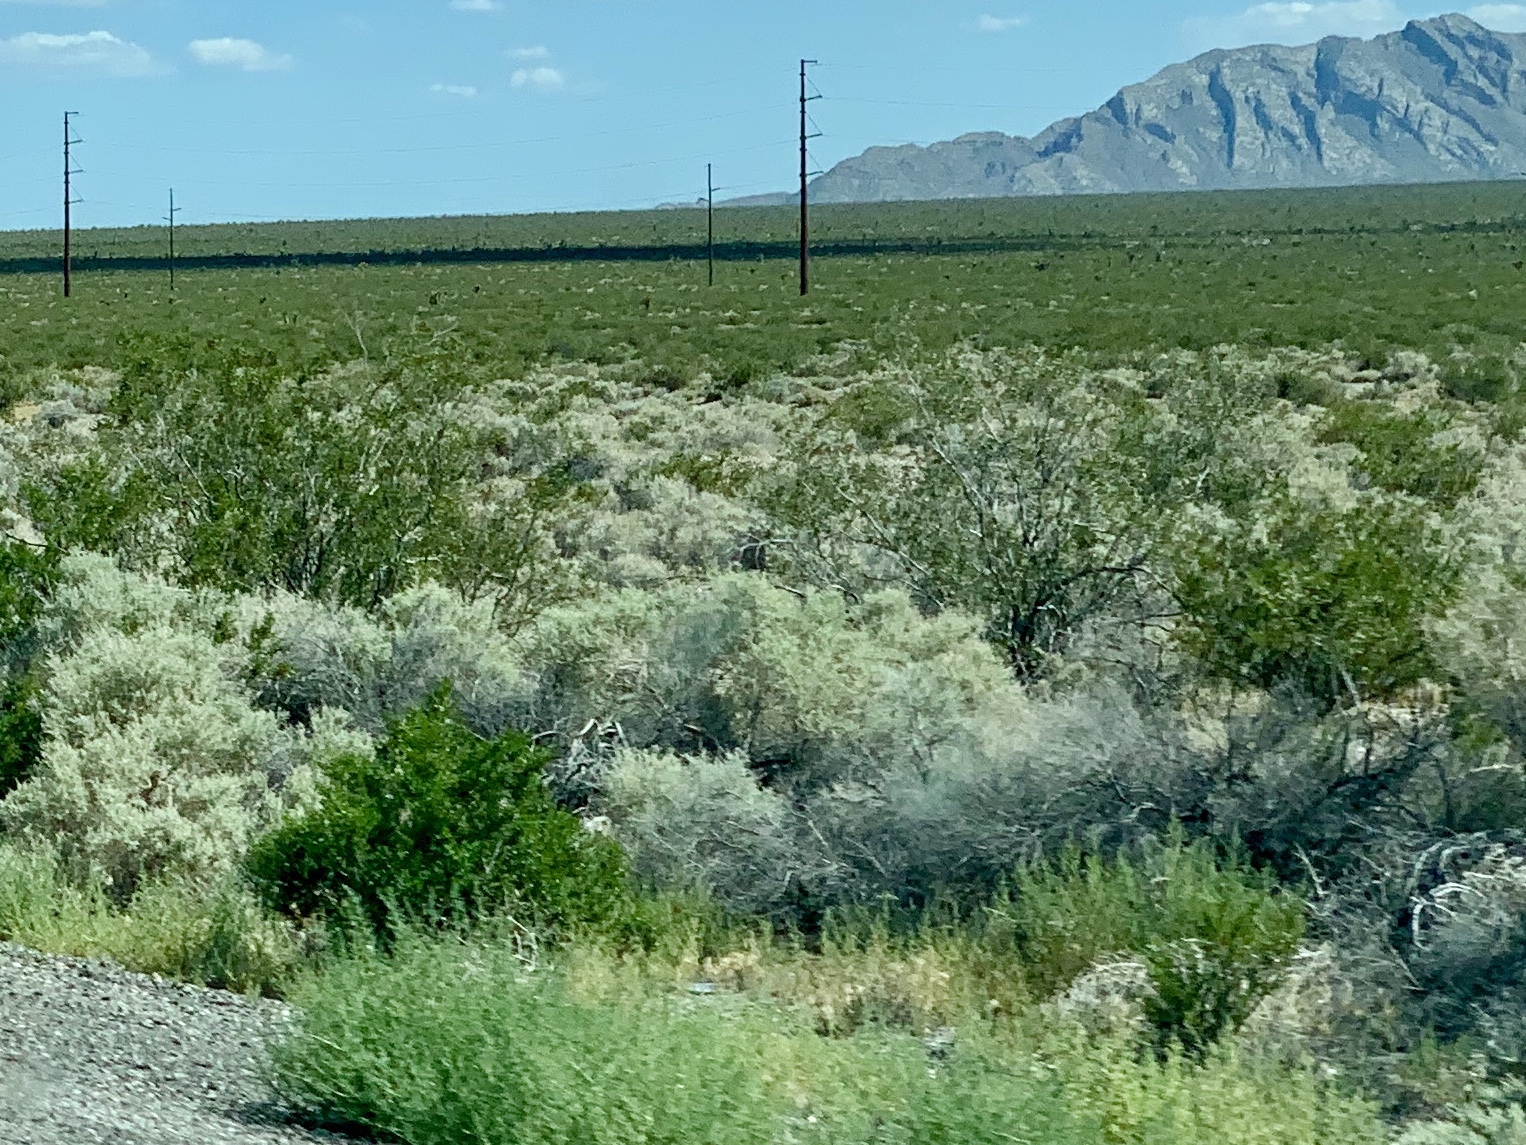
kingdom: Plantae
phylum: Tracheophyta
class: Magnoliopsida
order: Zygophyllales
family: Zygophyllaceae
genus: Larrea
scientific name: Larrea tridentata
